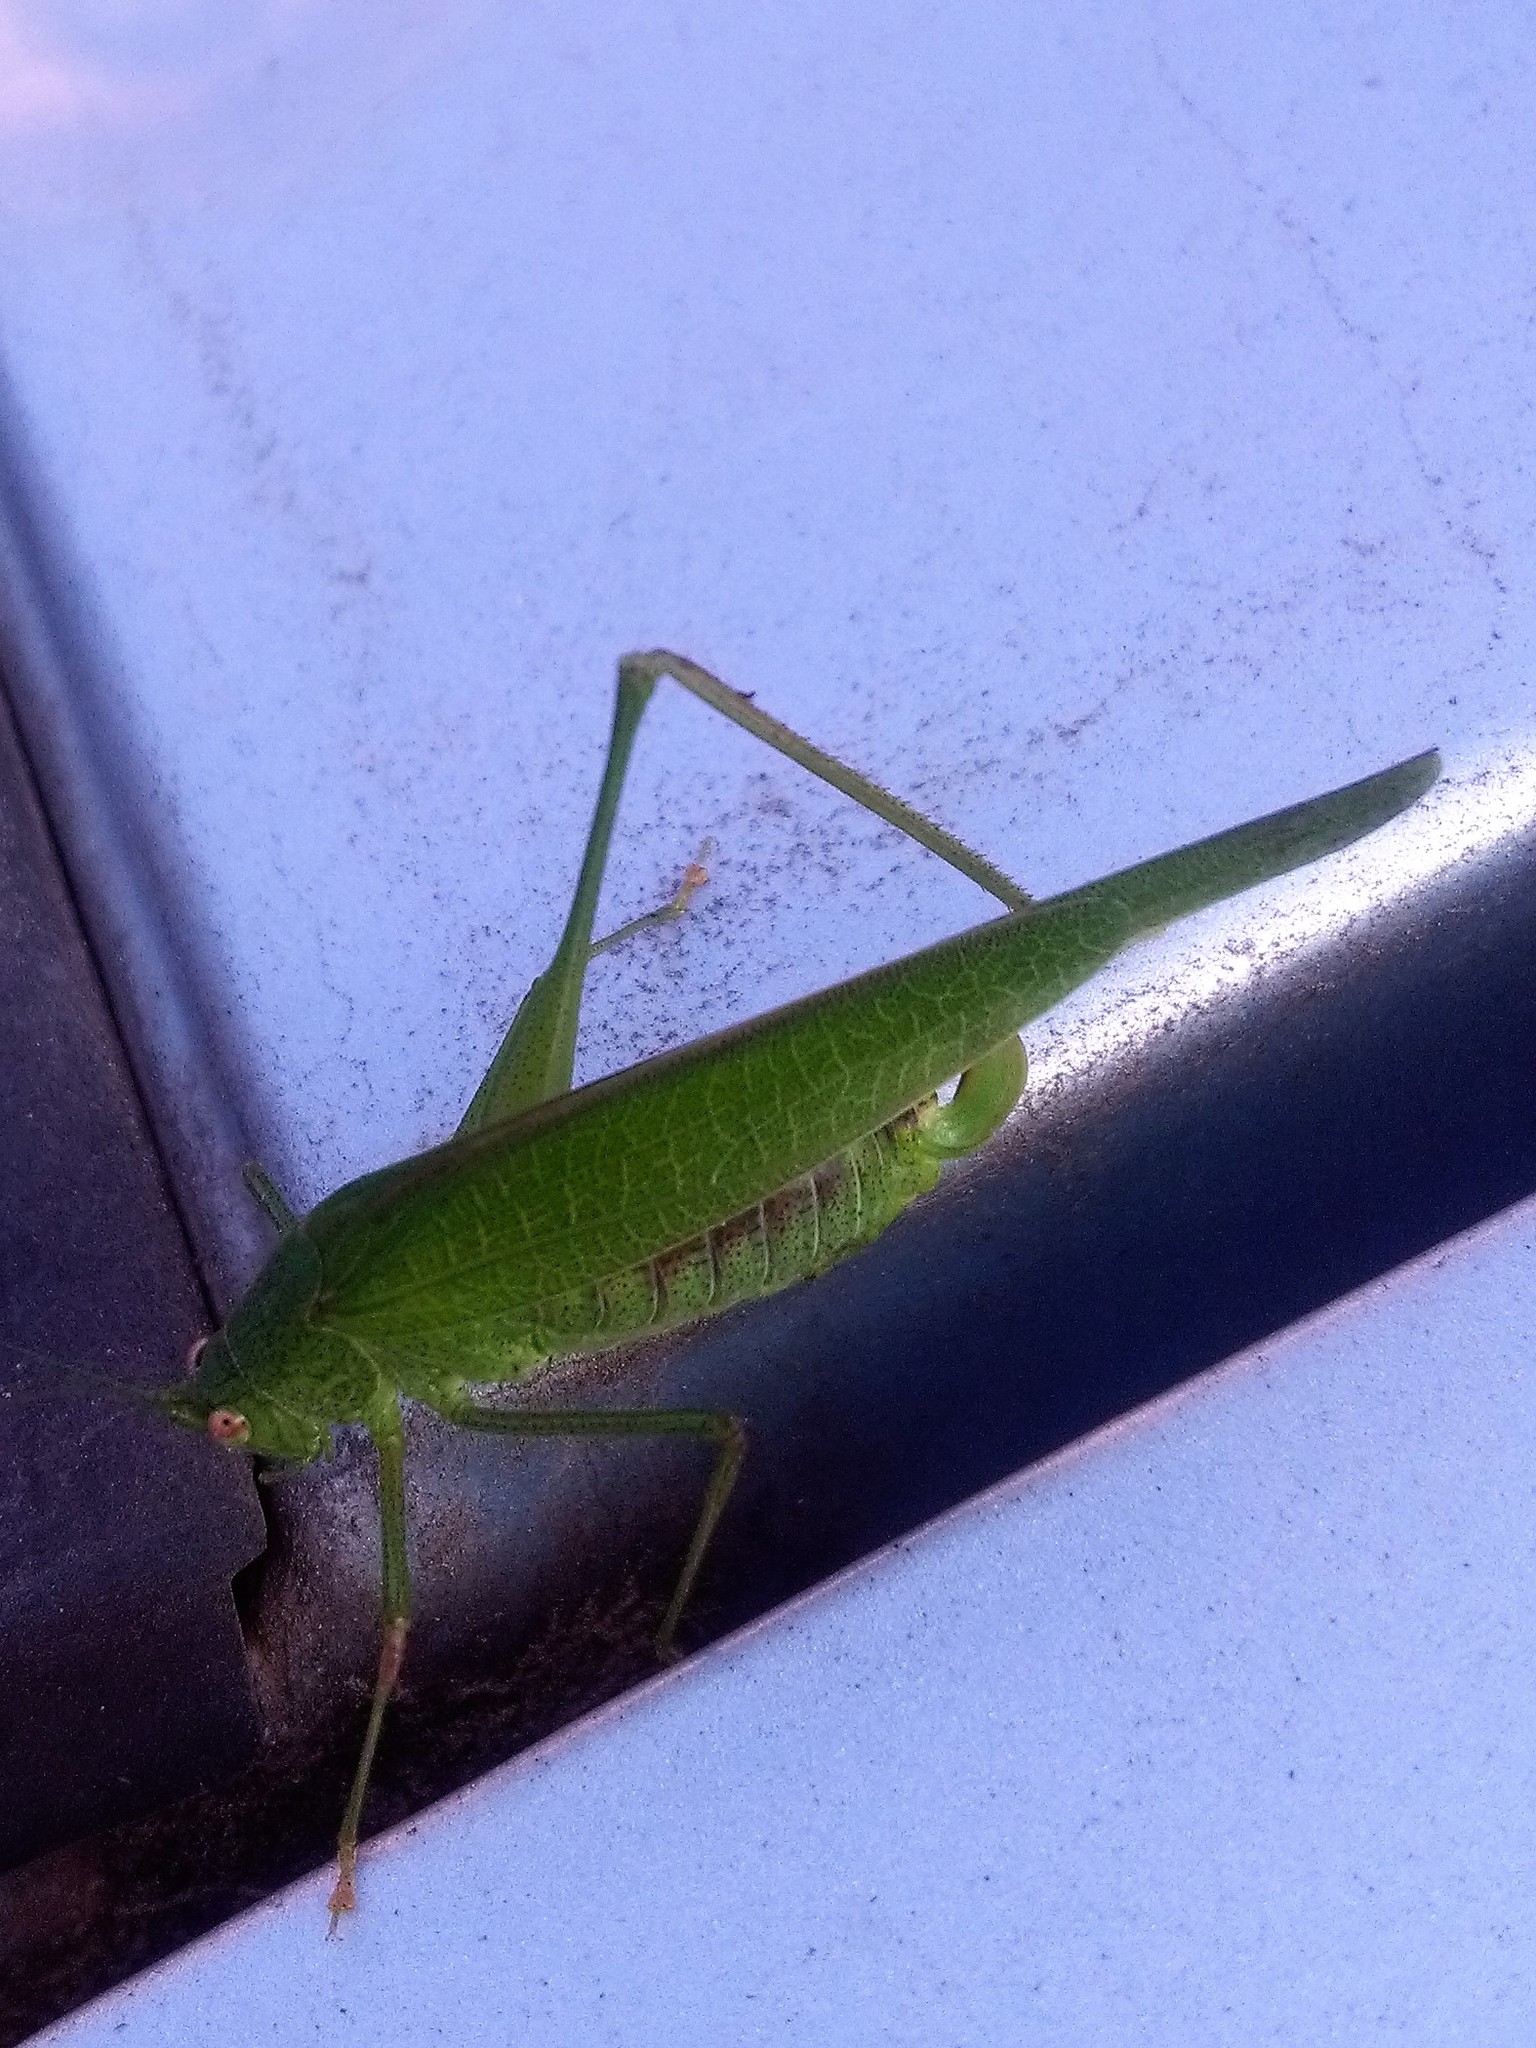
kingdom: Animalia
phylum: Arthropoda
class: Insecta
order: Orthoptera
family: Tettigoniidae
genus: Phaneroptera
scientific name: Phaneroptera nana
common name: Southern sickle bush-cricket
